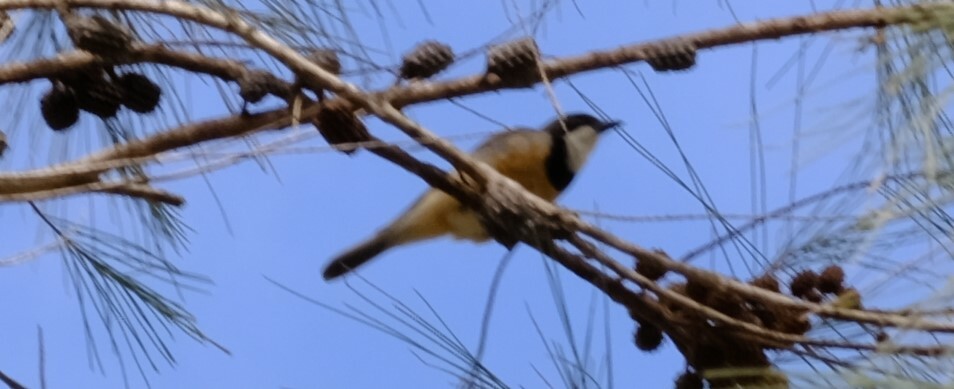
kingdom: Animalia
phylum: Chordata
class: Aves
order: Passeriformes
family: Pachycephalidae
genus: Pachycephala
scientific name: Pachycephala rufiventris
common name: Rufous whistler
